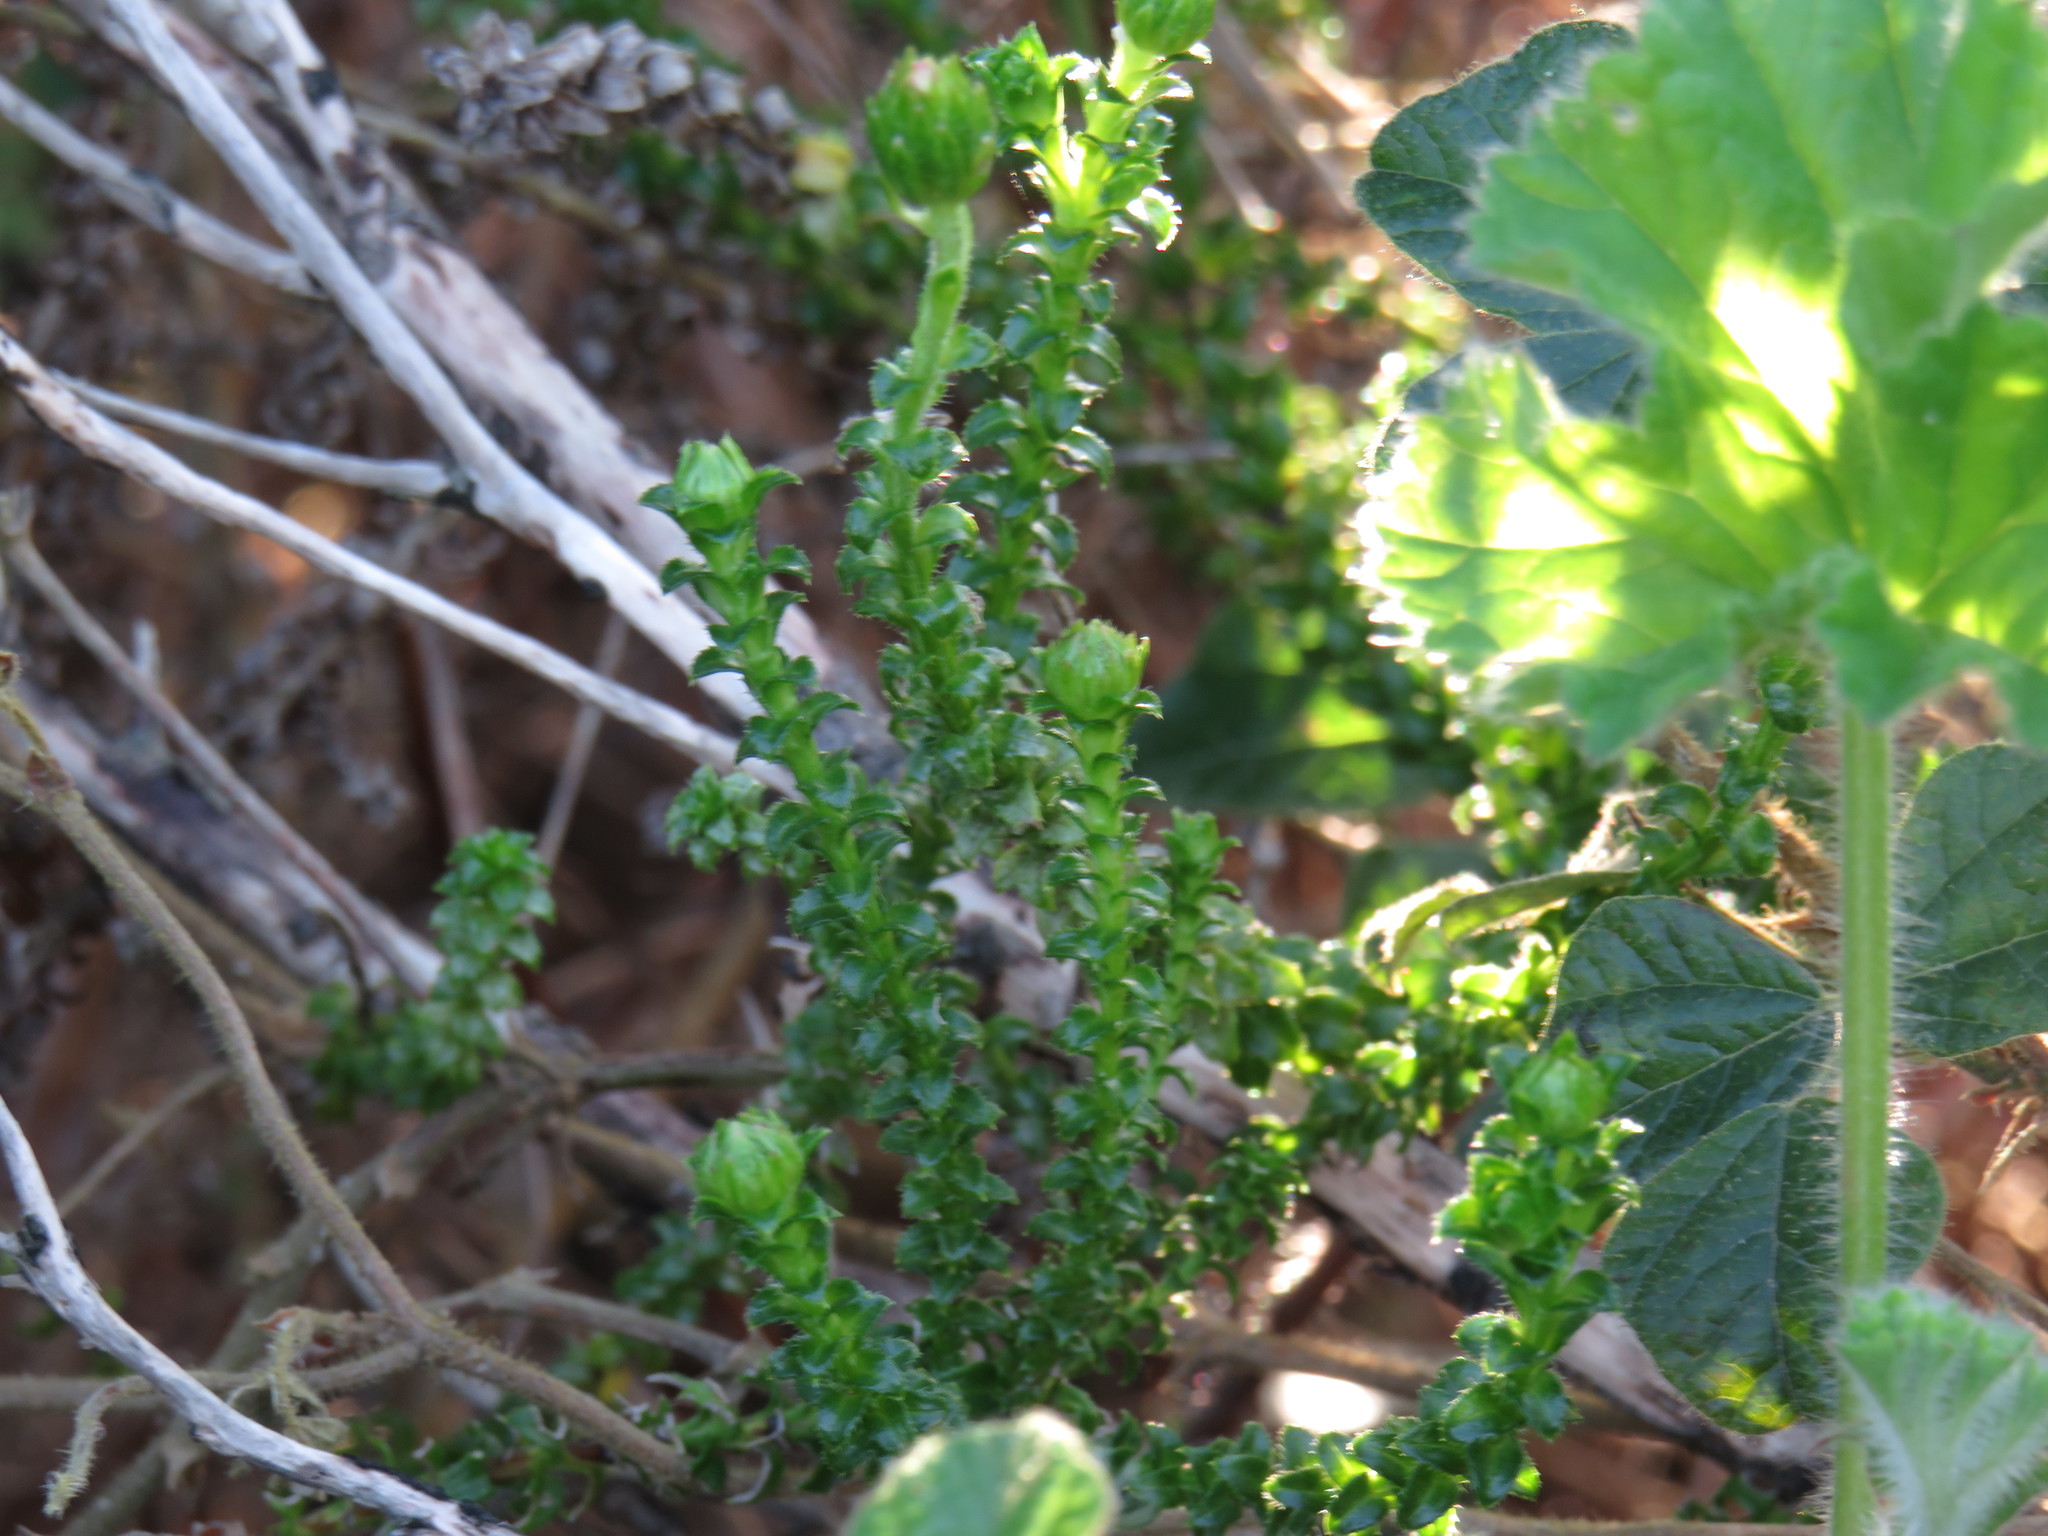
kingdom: Plantae
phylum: Tracheophyta
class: Magnoliopsida
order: Asterales
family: Asteraceae
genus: Polyarrhena
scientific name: Polyarrhena reflexa
